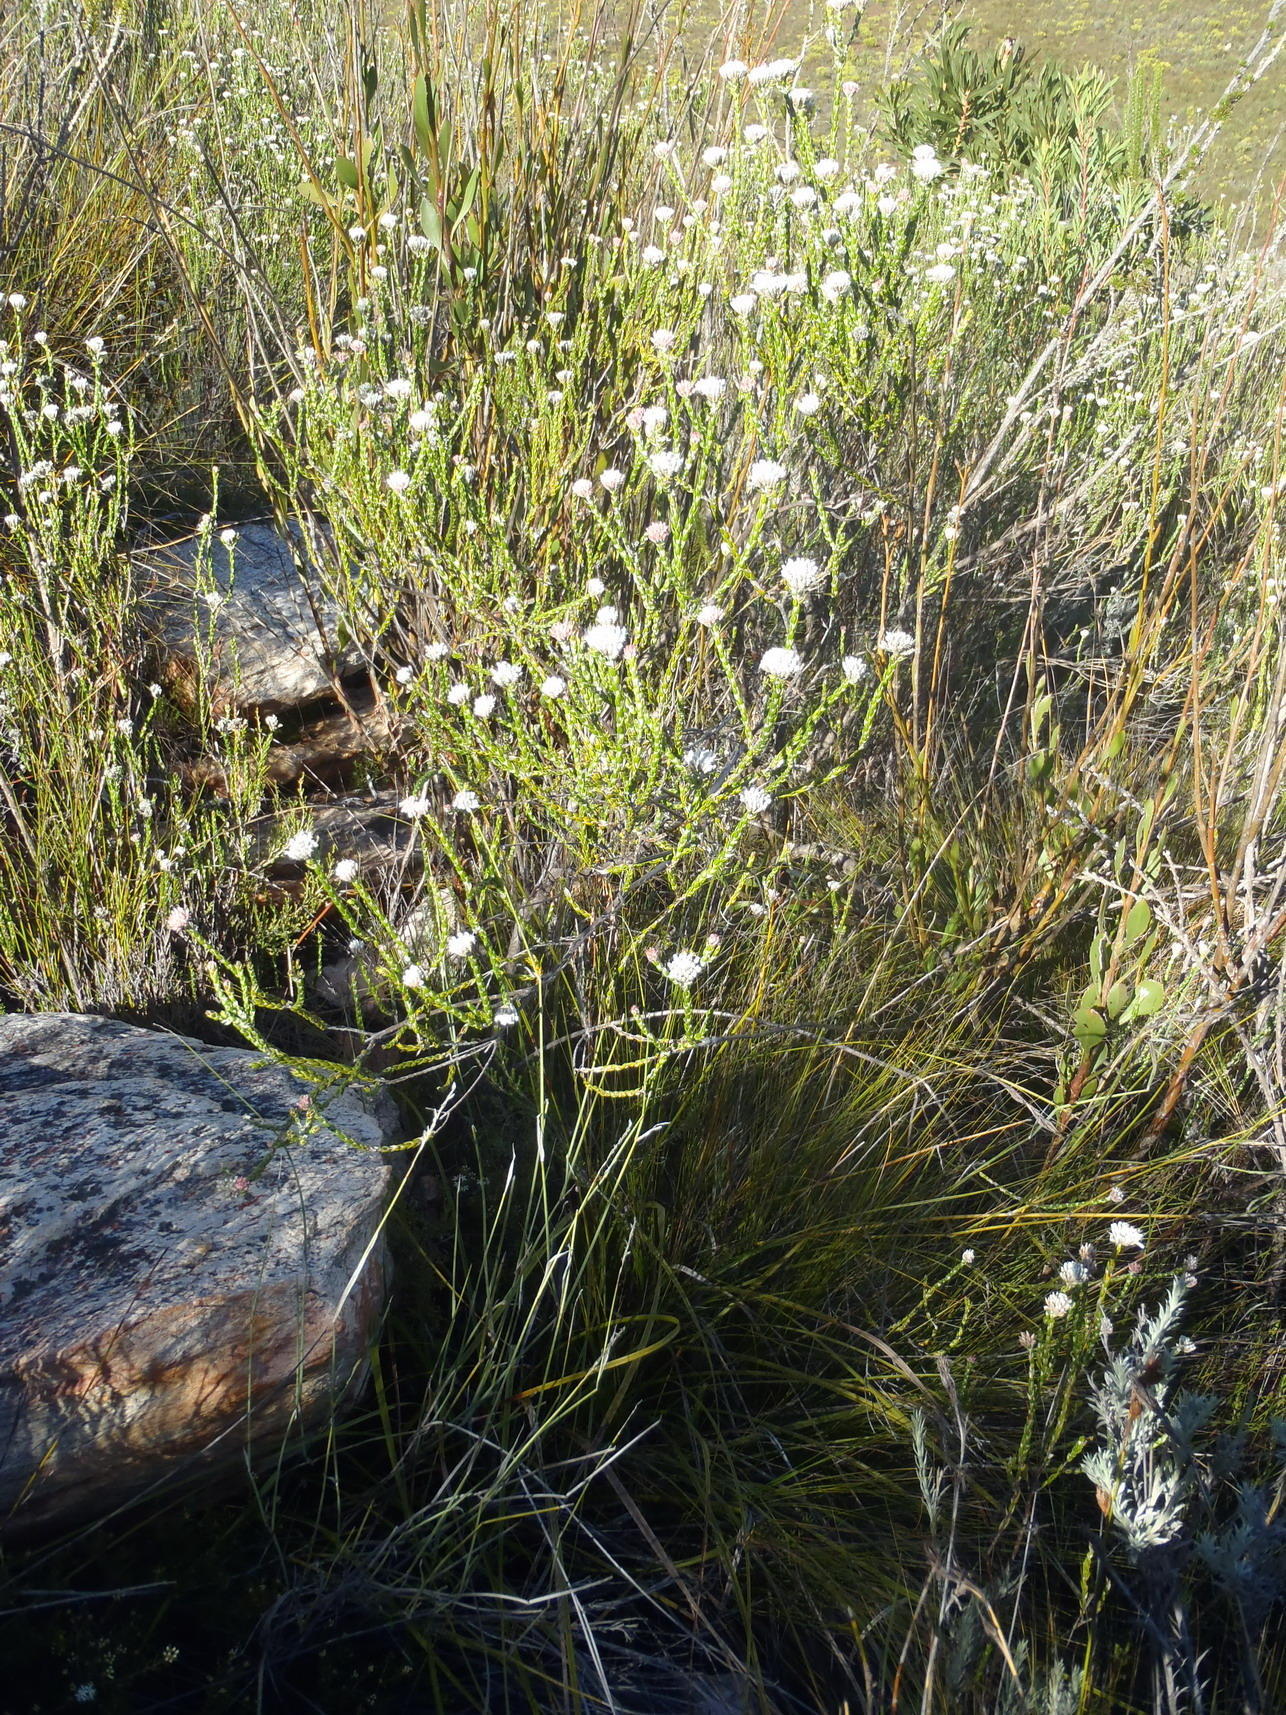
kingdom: Plantae
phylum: Tracheophyta
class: Magnoliopsida
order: Asterales
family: Asteraceae
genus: Metalasia
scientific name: Metalasia pulcherrima
